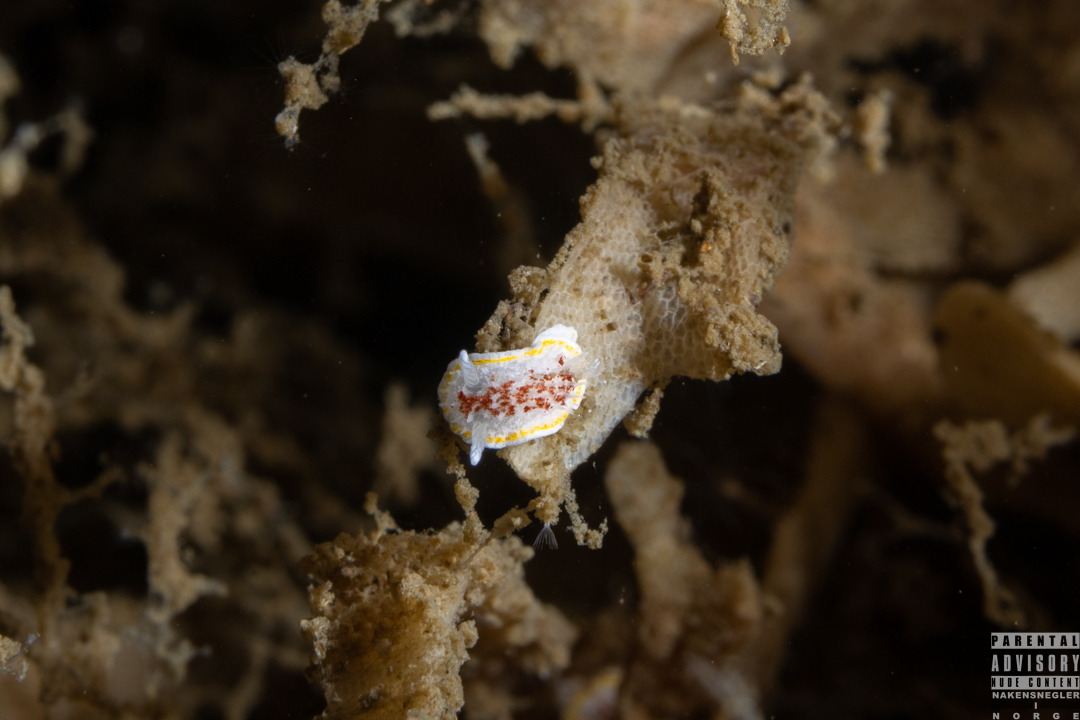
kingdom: Animalia
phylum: Mollusca
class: Gastropoda
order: Nudibranchia
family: Calycidorididae
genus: Diaphorodoris
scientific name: Diaphorodoris luteocincta
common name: Fried egg nudibranch
